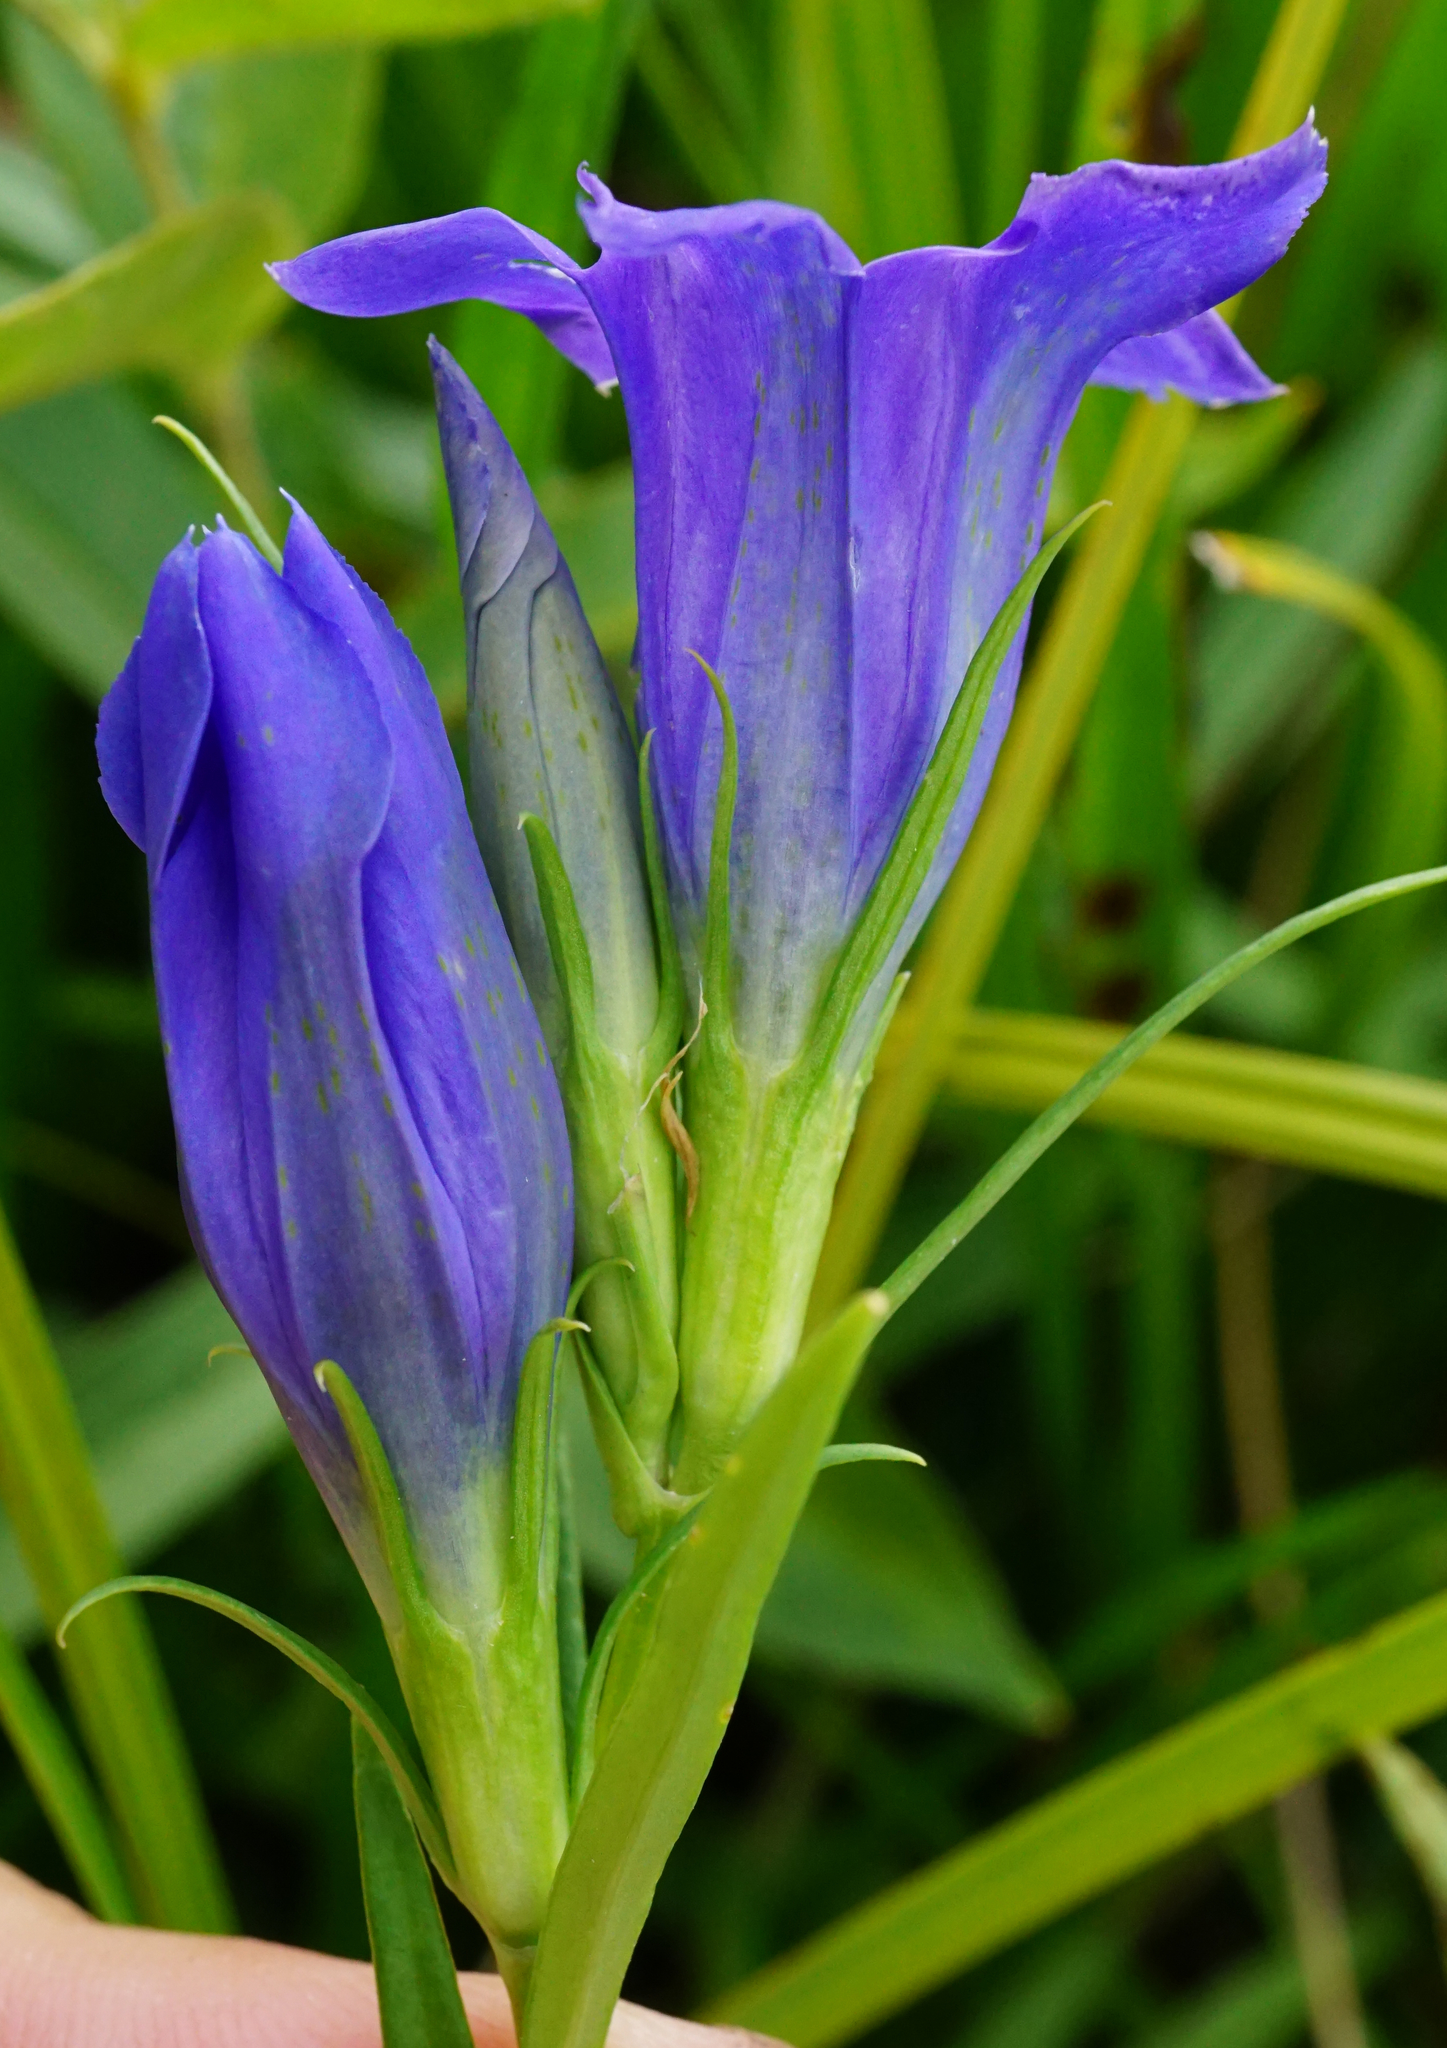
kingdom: Plantae
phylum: Tracheophyta
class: Magnoliopsida
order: Gentianales
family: Gentianaceae
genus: Gentiana
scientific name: Gentiana pneumonanthe
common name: Marsh gentian
